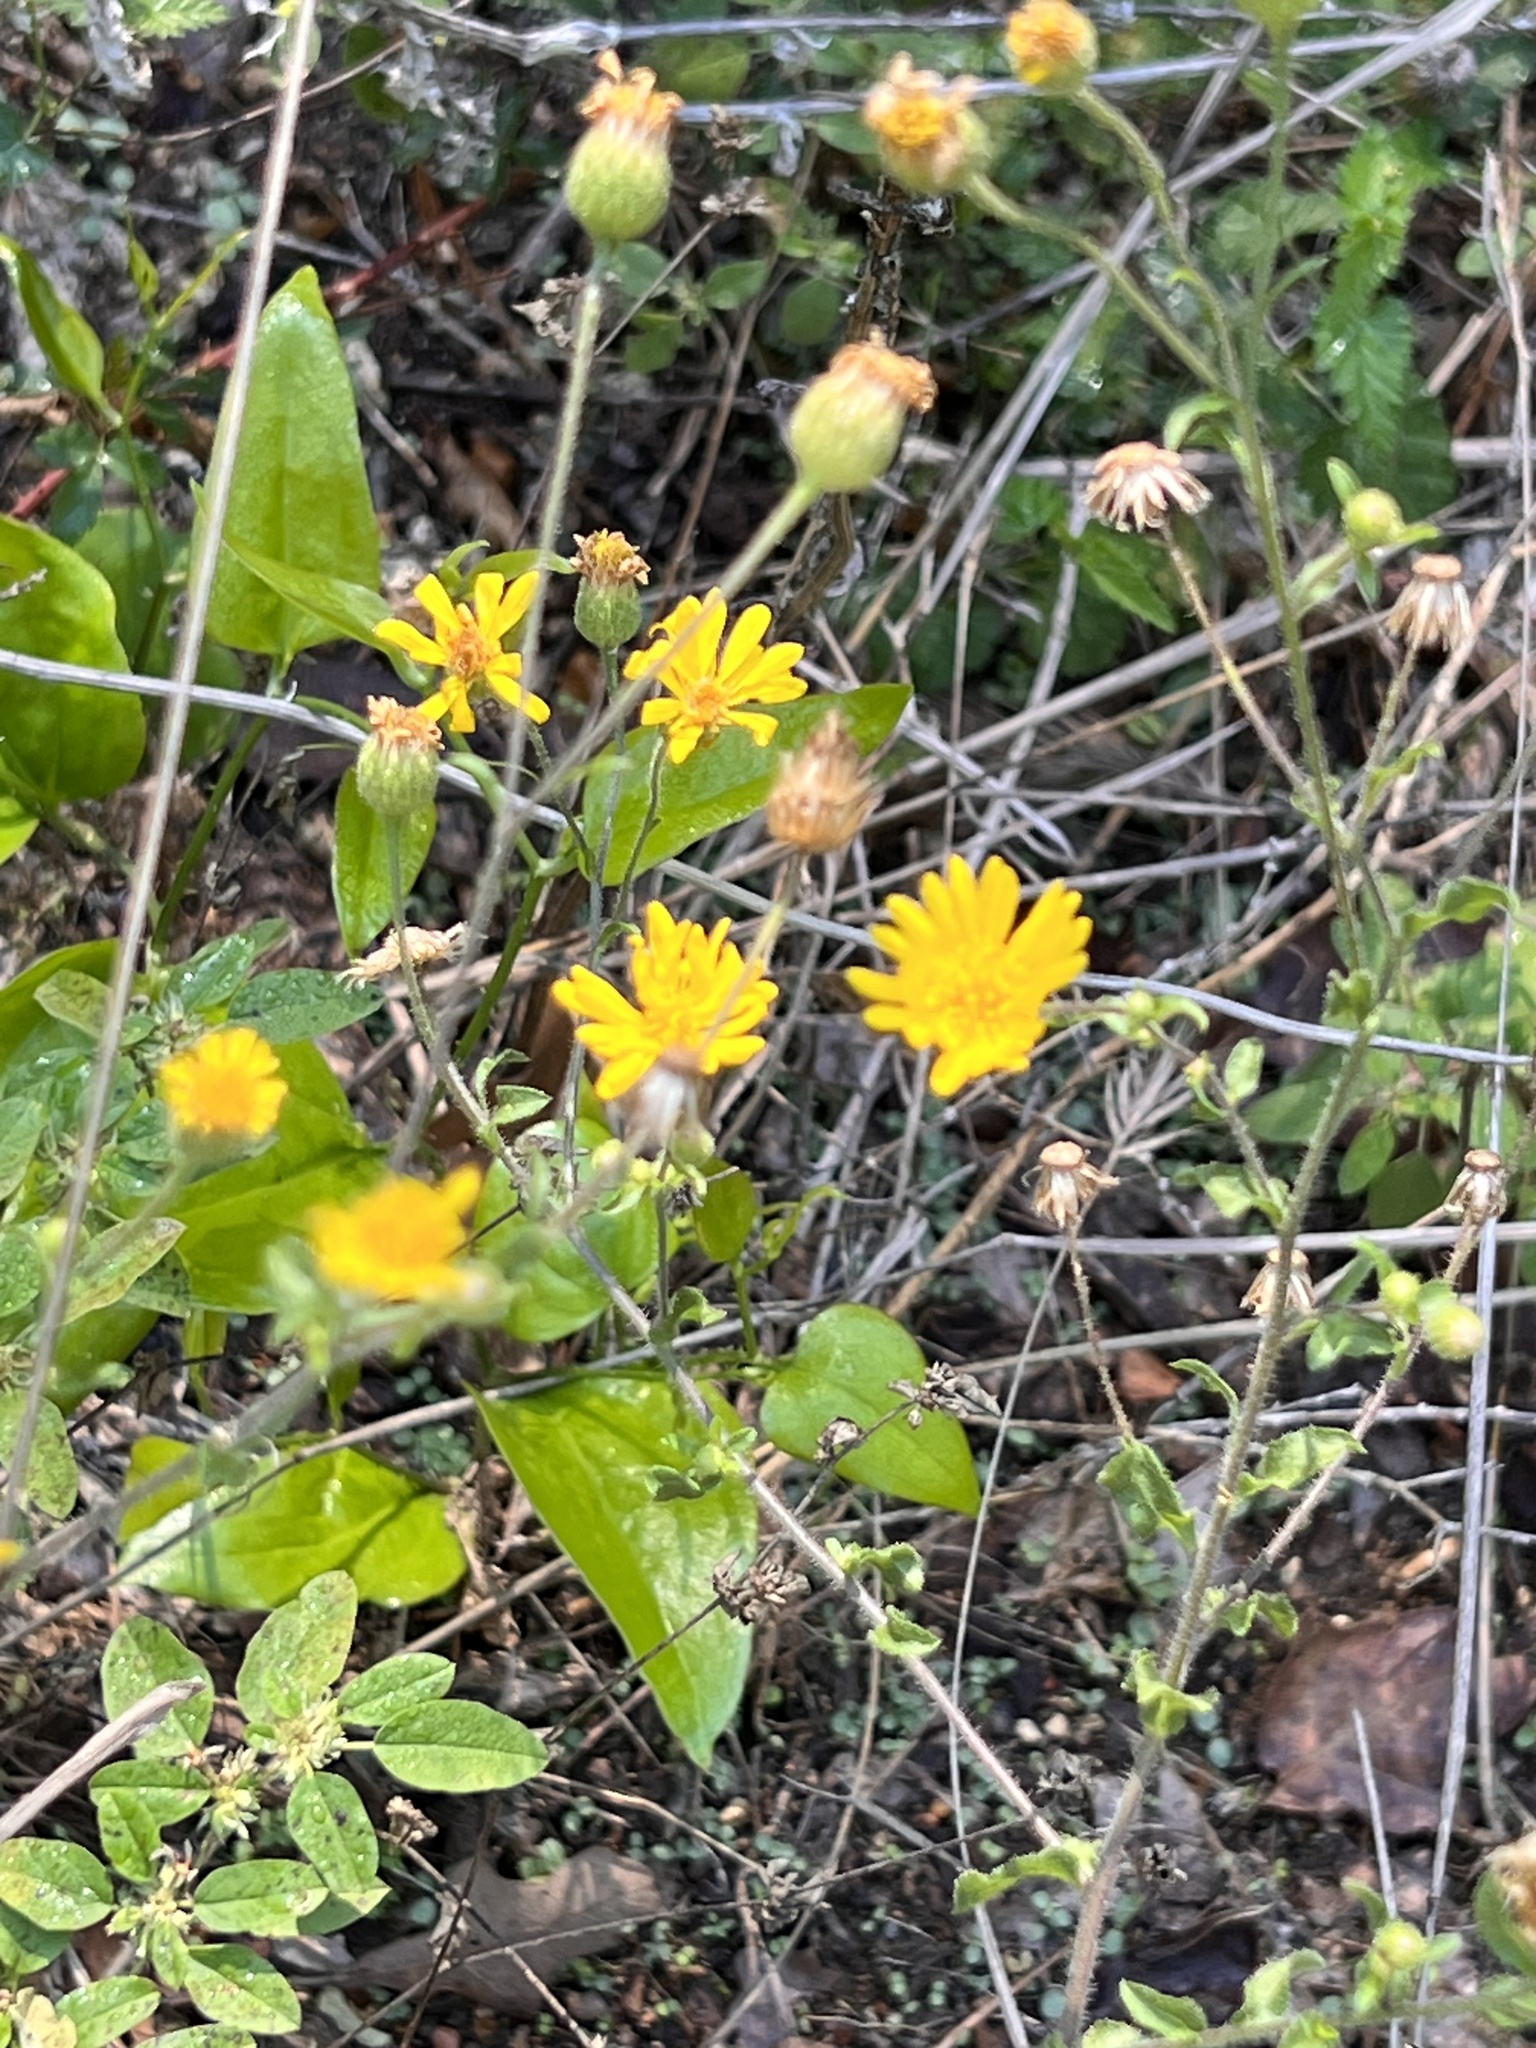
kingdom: Plantae
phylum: Tracheophyta
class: Magnoliopsida
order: Asterales
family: Asteraceae
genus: Heterotheca
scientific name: Heterotheca subaxillaris
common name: Camphorweed
